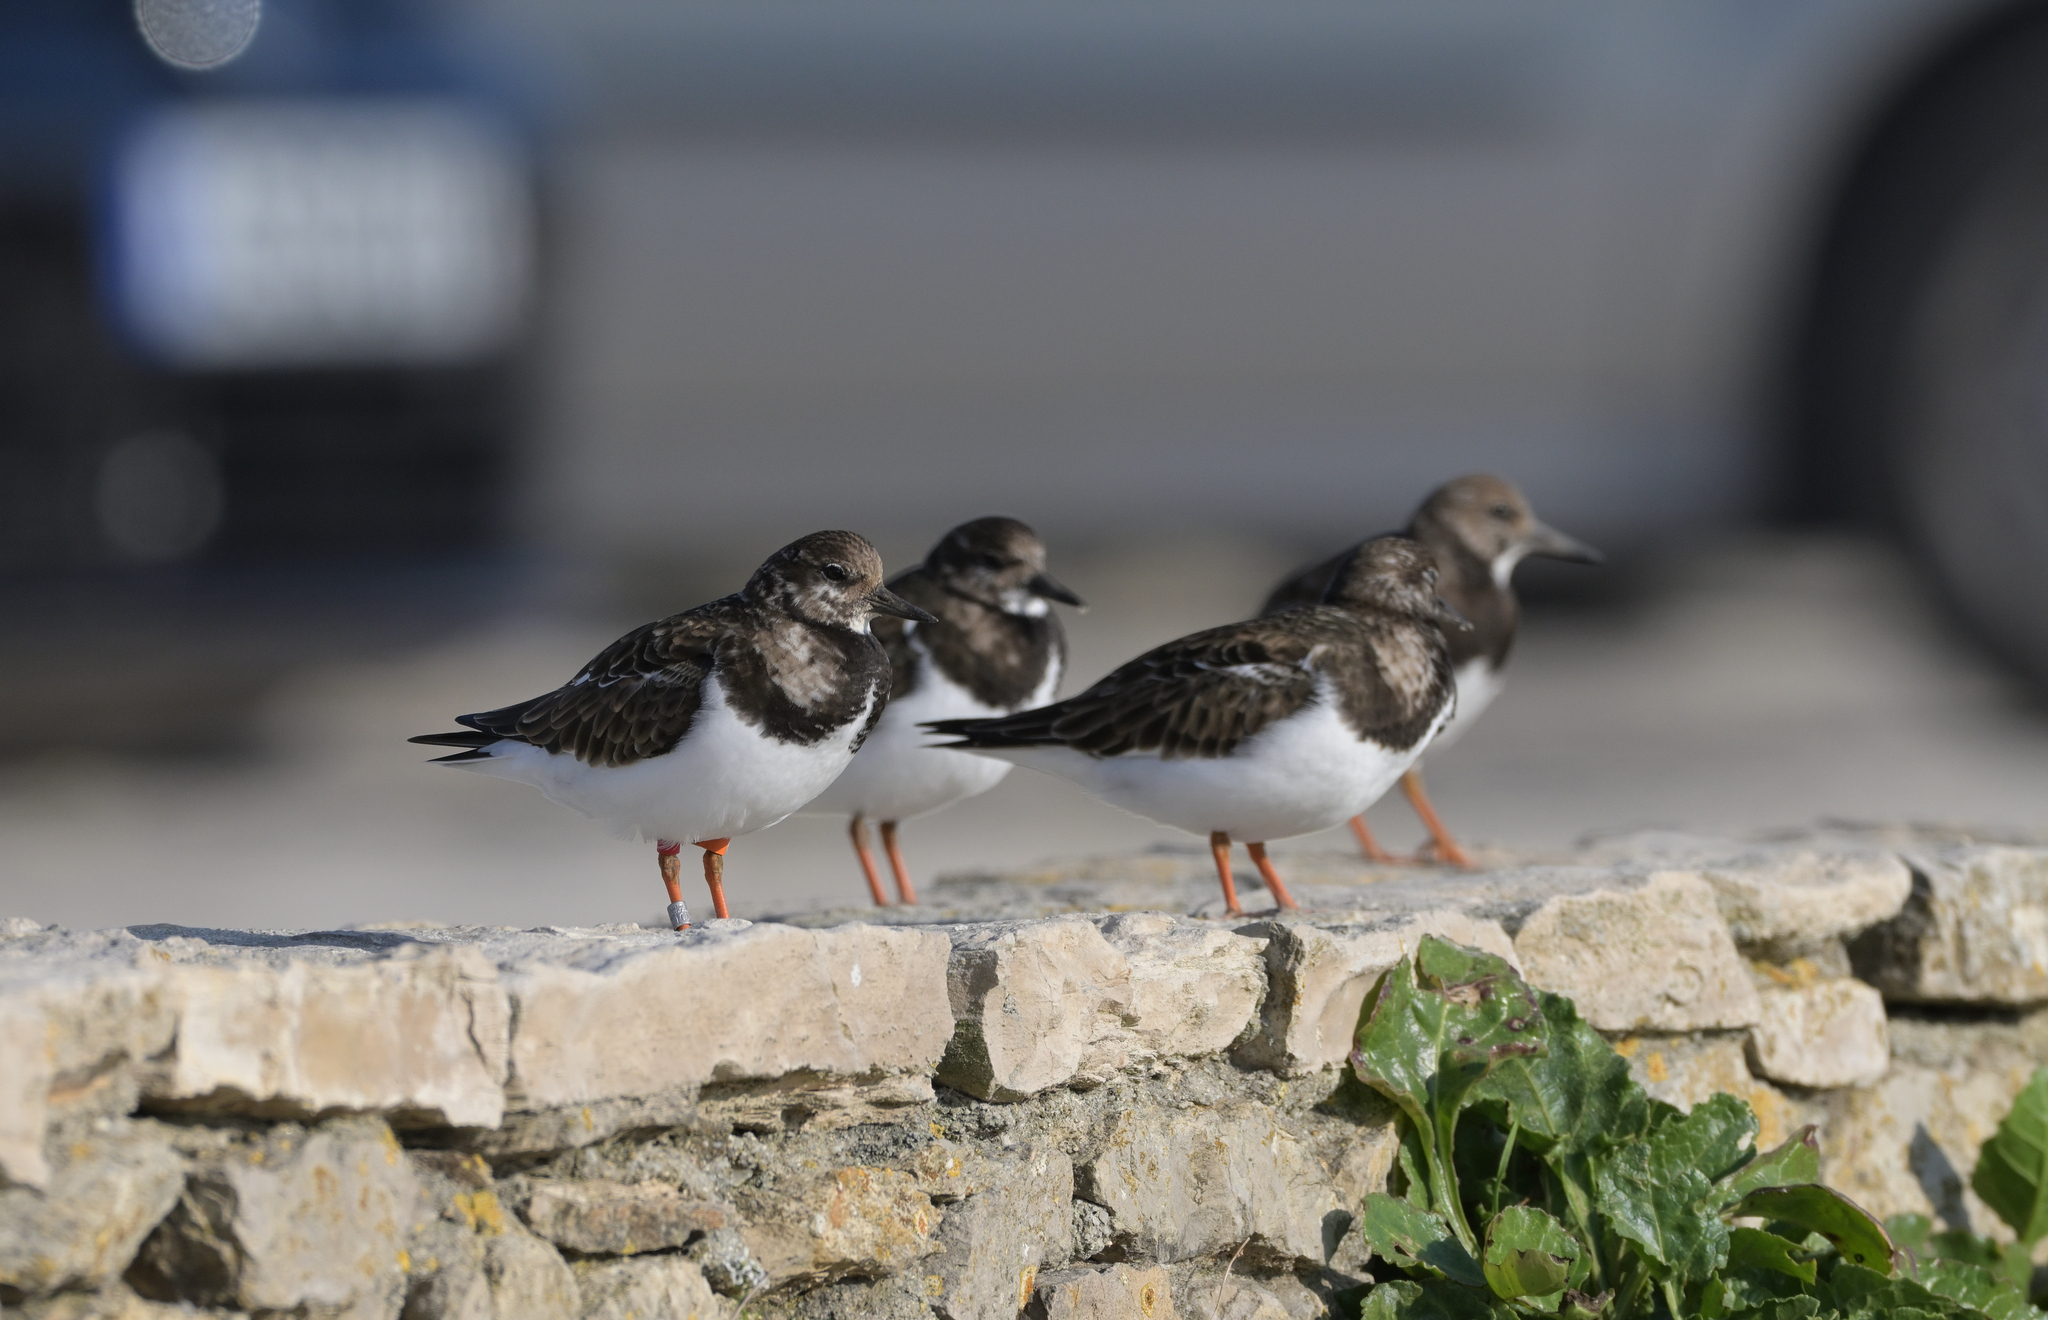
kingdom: Animalia
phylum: Chordata
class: Aves
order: Charadriiformes
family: Scolopacidae
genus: Arenaria
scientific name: Arenaria interpres
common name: Ruddy turnstone
